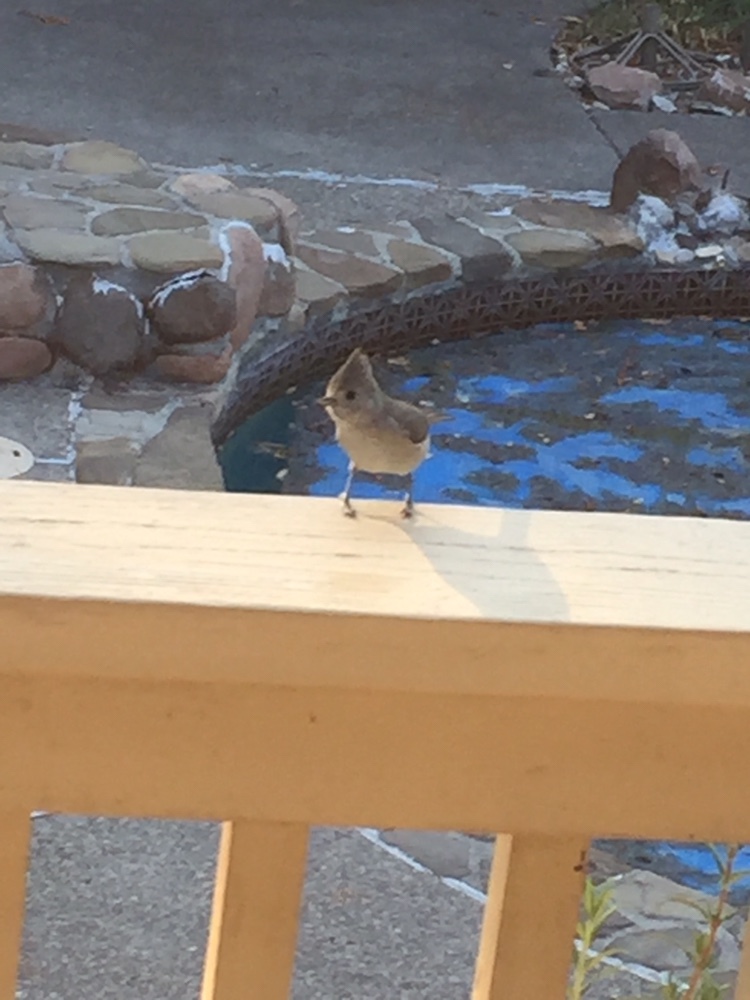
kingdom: Animalia
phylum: Chordata
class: Aves
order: Passeriformes
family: Paridae
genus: Baeolophus
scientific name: Baeolophus inornatus
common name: Oak titmouse
